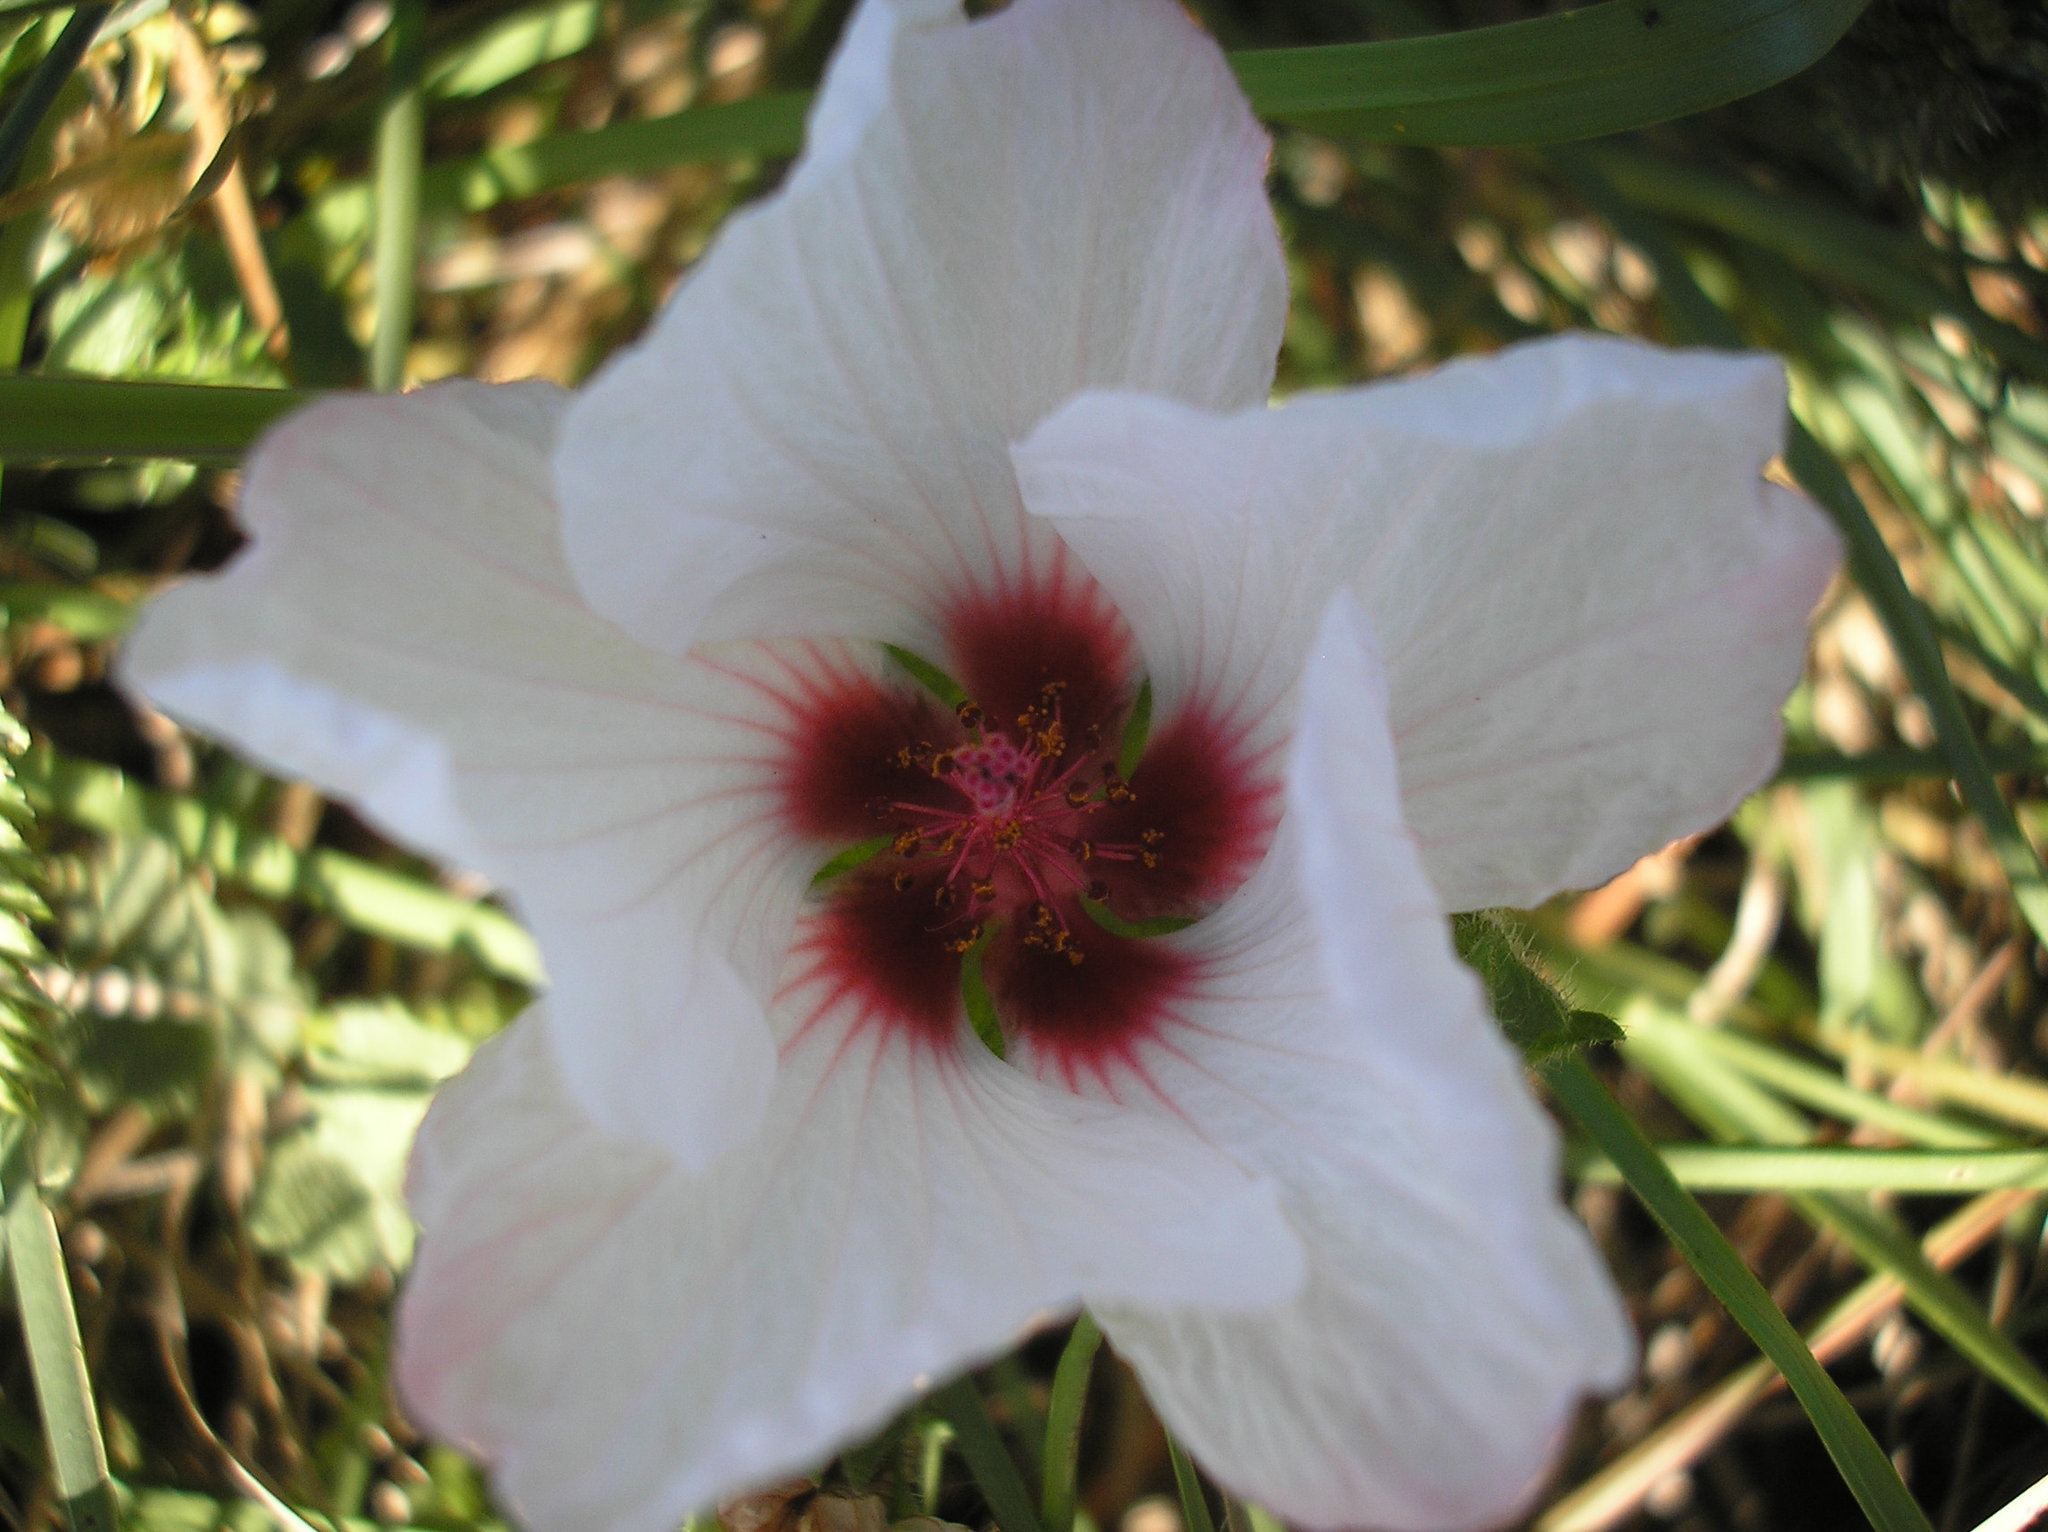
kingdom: Plantae
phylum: Tracheophyta
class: Magnoliopsida
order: Malvales
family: Malvaceae
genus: Pavonia
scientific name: Pavonia glechomoides
